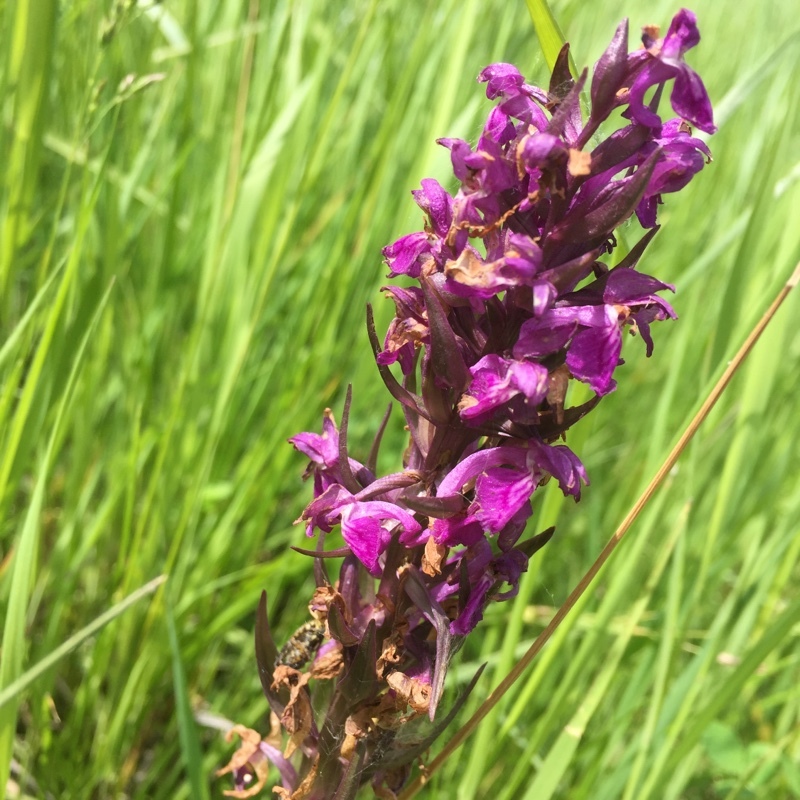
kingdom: Plantae
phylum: Tracheophyta
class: Liliopsida
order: Asparagales
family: Orchidaceae
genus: Orchis
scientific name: Orchis mascula
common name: Early-purple orchid
